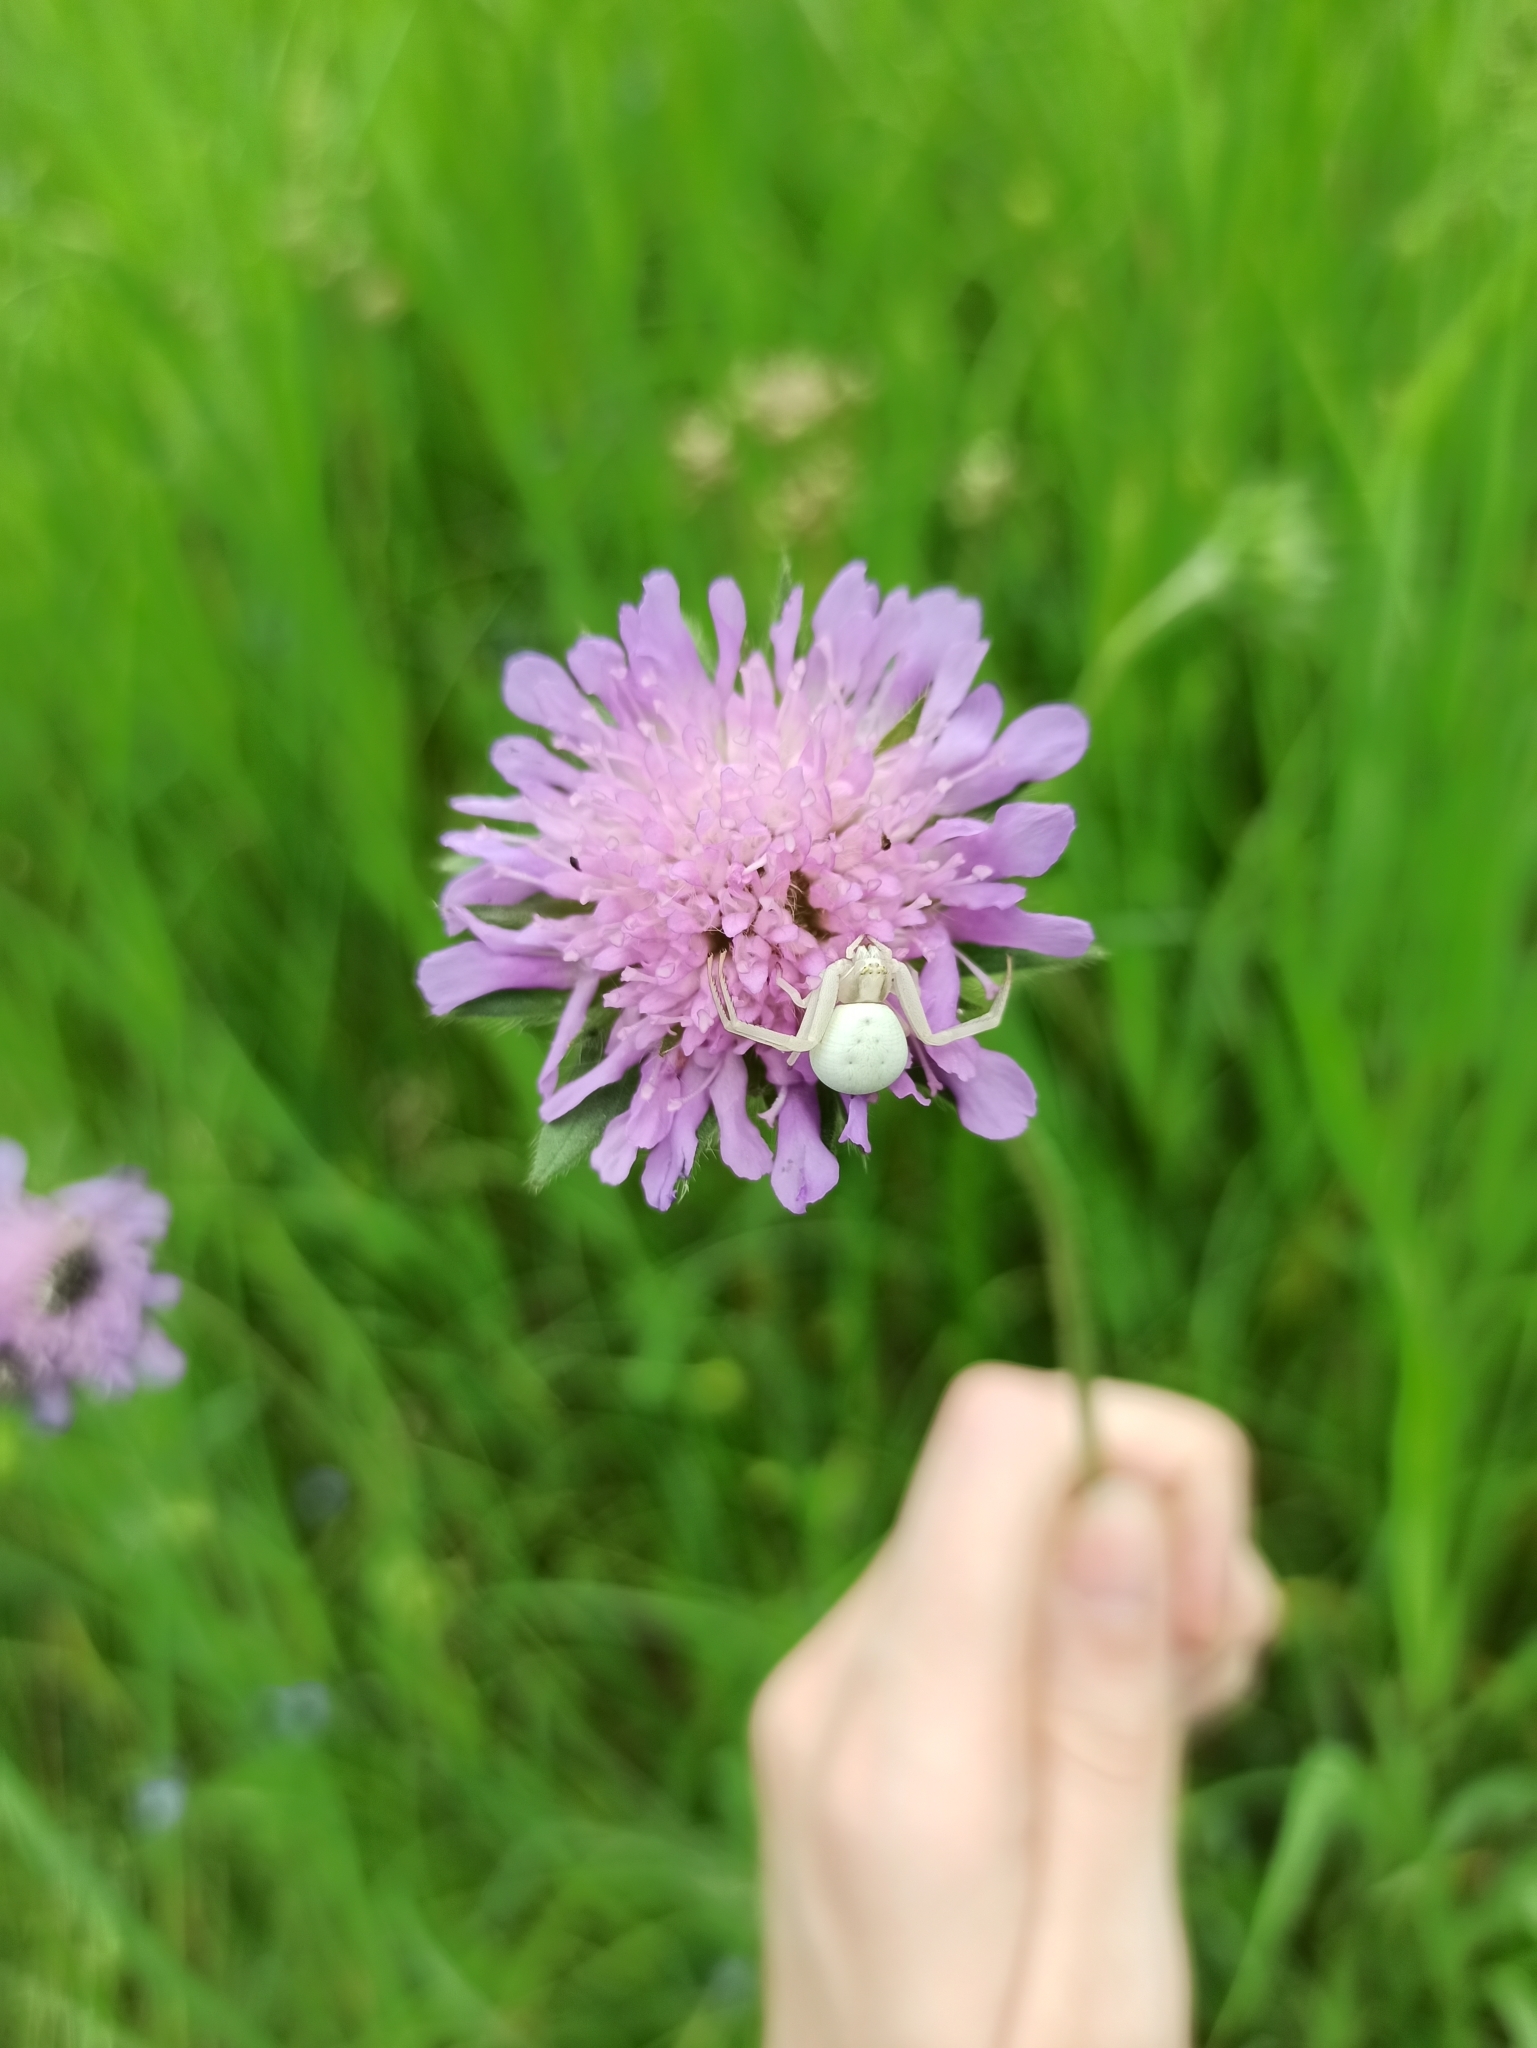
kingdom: Plantae
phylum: Tracheophyta
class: Magnoliopsida
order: Dipsacales
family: Caprifoliaceae
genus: Knautia
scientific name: Knautia arvensis
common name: Field scabiosa
